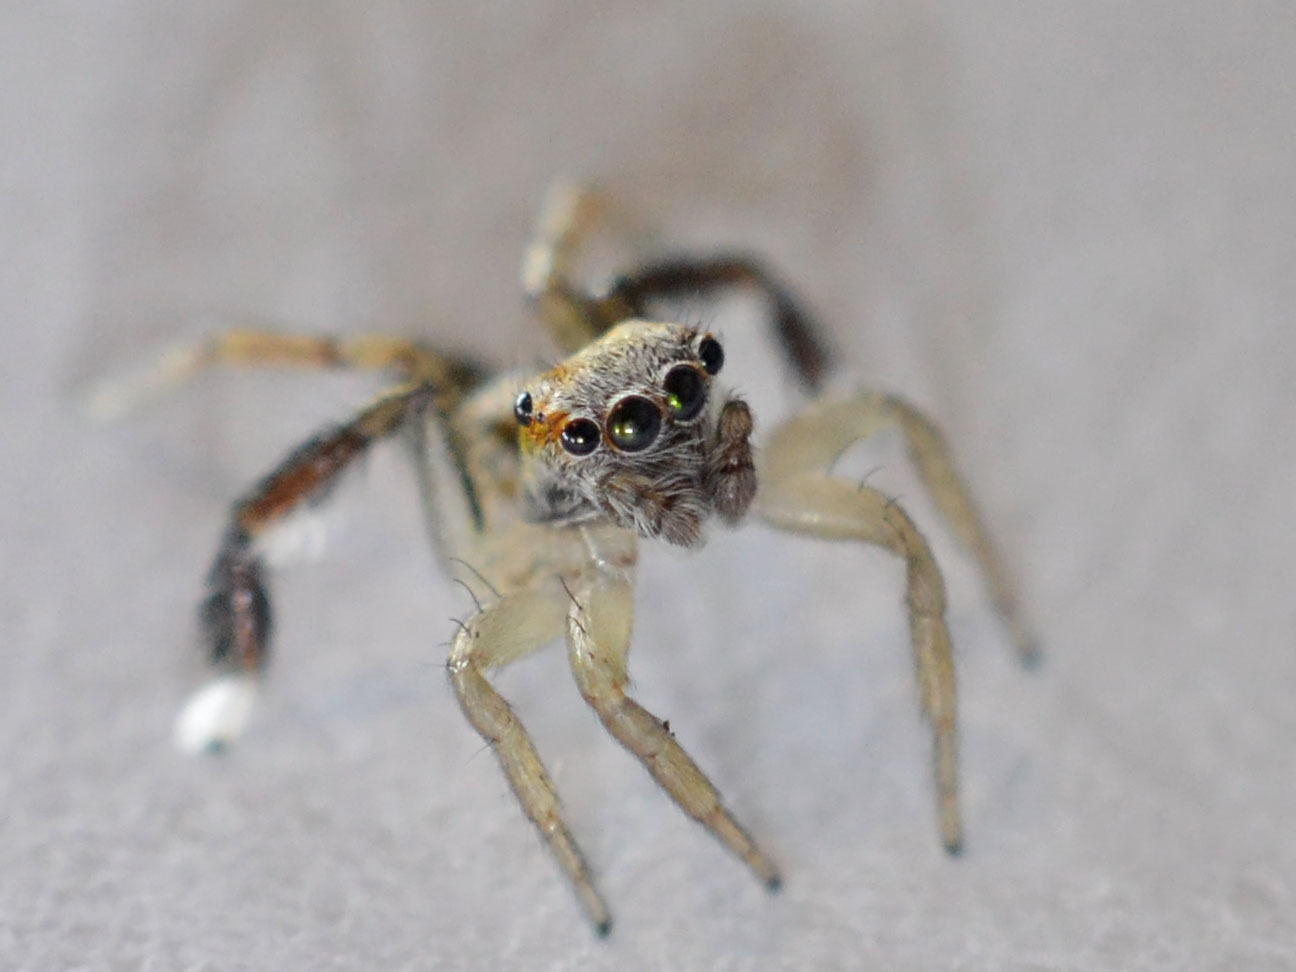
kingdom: Animalia
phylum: Arthropoda
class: Arachnida
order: Araneae
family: Salticidae
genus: Saitis
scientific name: Saitis tauricus
